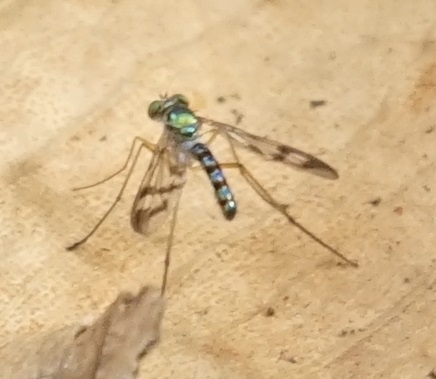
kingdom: Animalia
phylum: Arthropoda
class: Insecta
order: Diptera
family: Dolichopodidae
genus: Heteropsilopus
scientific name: Heteropsilopus squamifer
